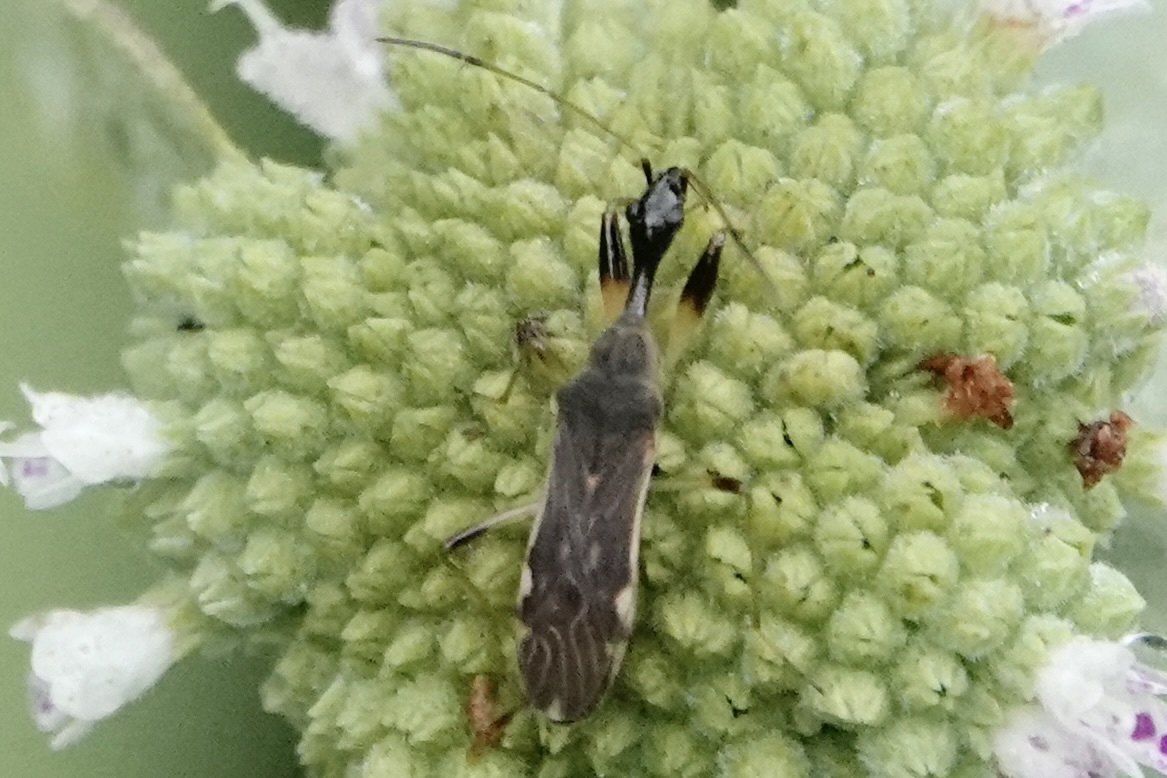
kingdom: Animalia
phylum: Arthropoda
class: Insecta
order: Hemiptera
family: Rhyparochromidae
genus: Myodocha
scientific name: Myodocha serripes
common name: Long-necked seed bug
